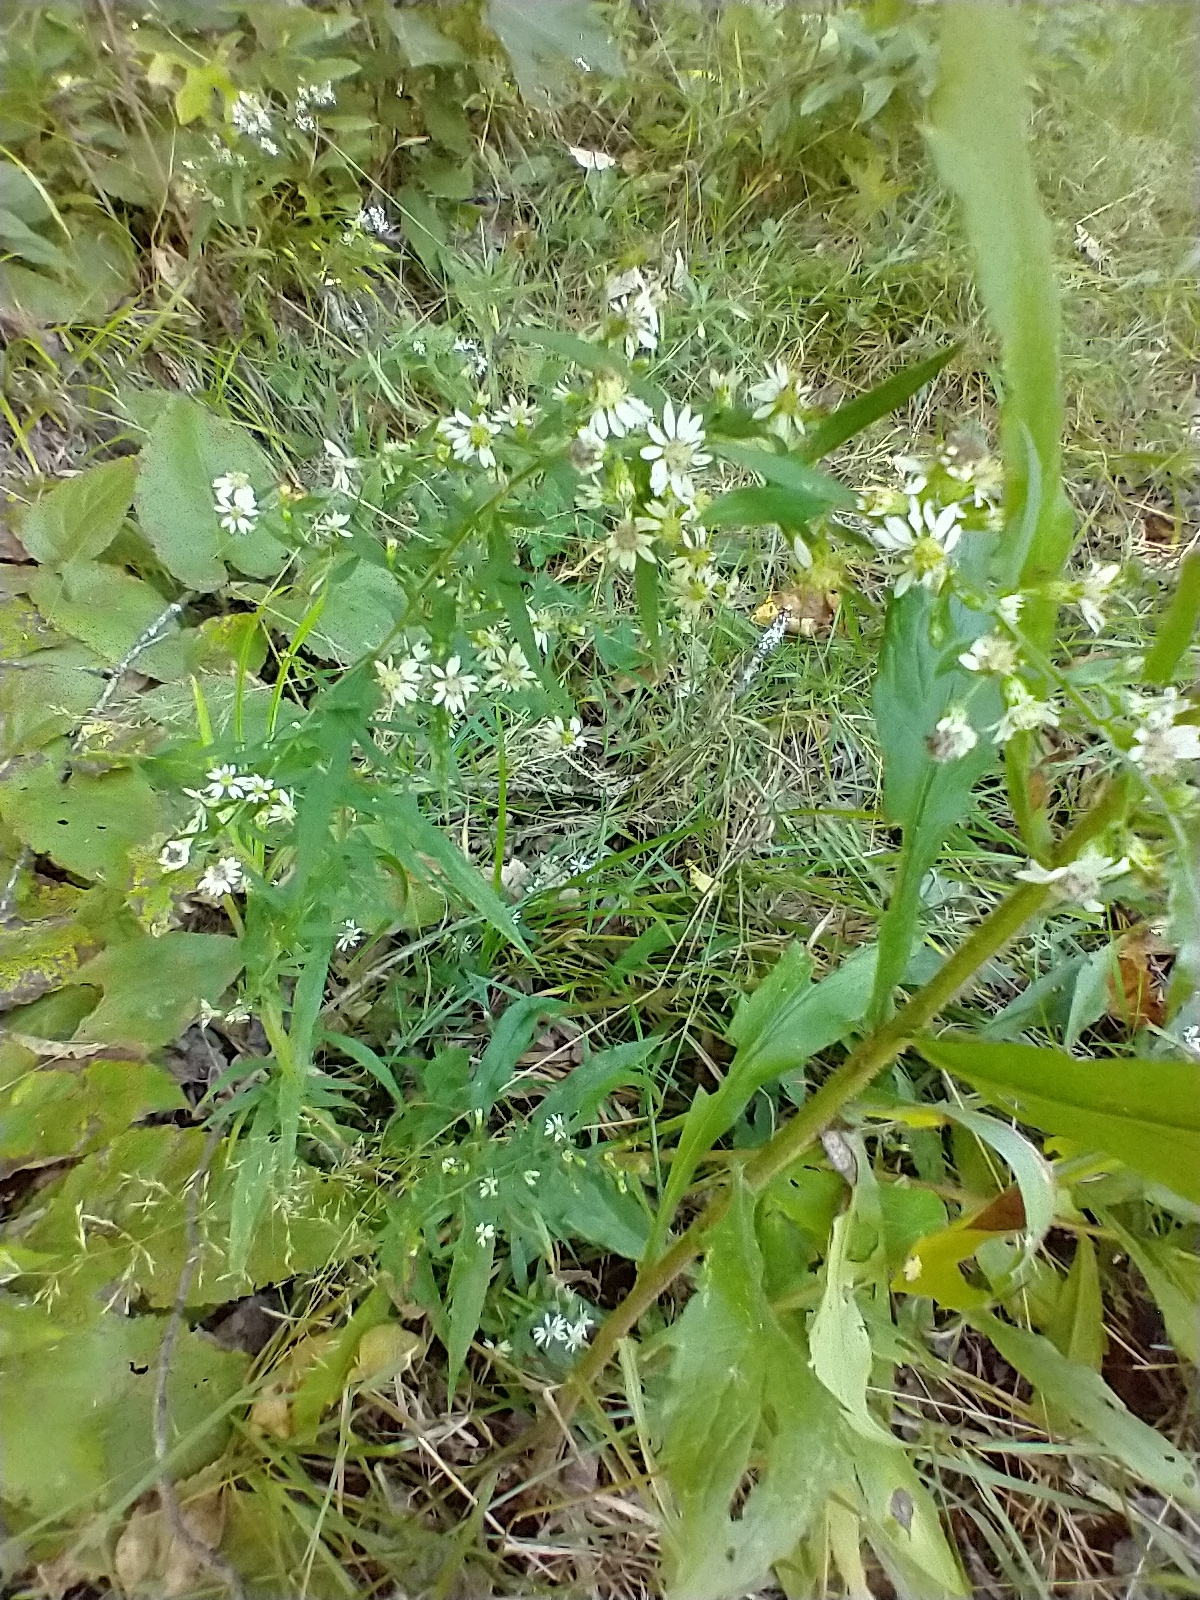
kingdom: Plantae
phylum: Tracheophyta
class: Magnoliopsida
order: Asterales
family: Asteraceae
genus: Symphyotrichum
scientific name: Symphyotrichum lateriflorum
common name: Calico aster
